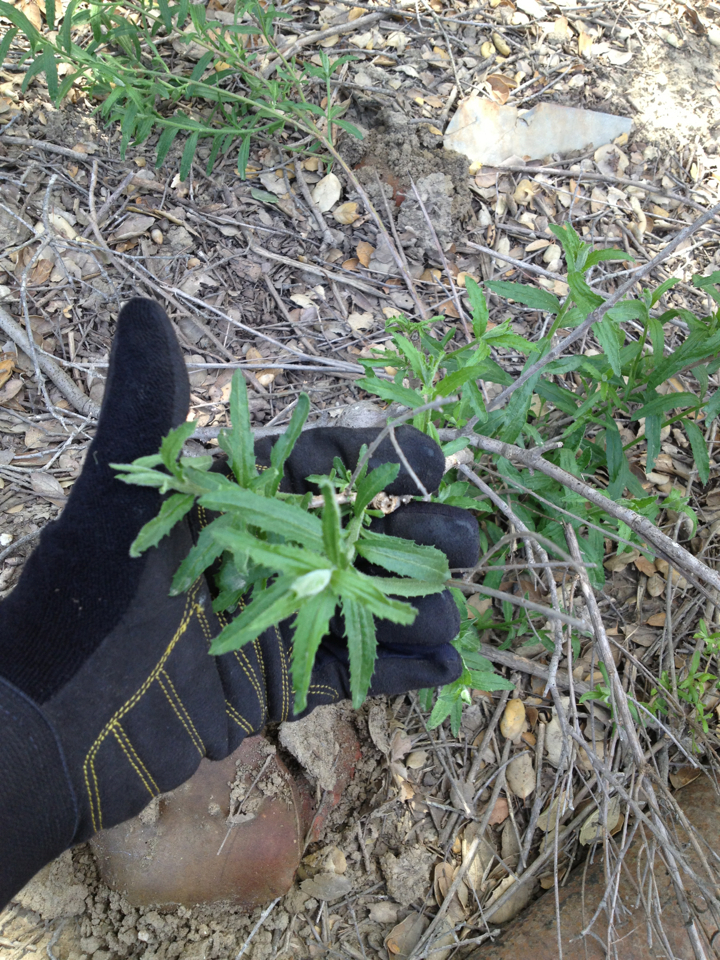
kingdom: Plantae
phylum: Tracheophyta
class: Magnoliopsida
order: Asterales
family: Asteraceae
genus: Baccharis
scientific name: Baccharis plummerae
